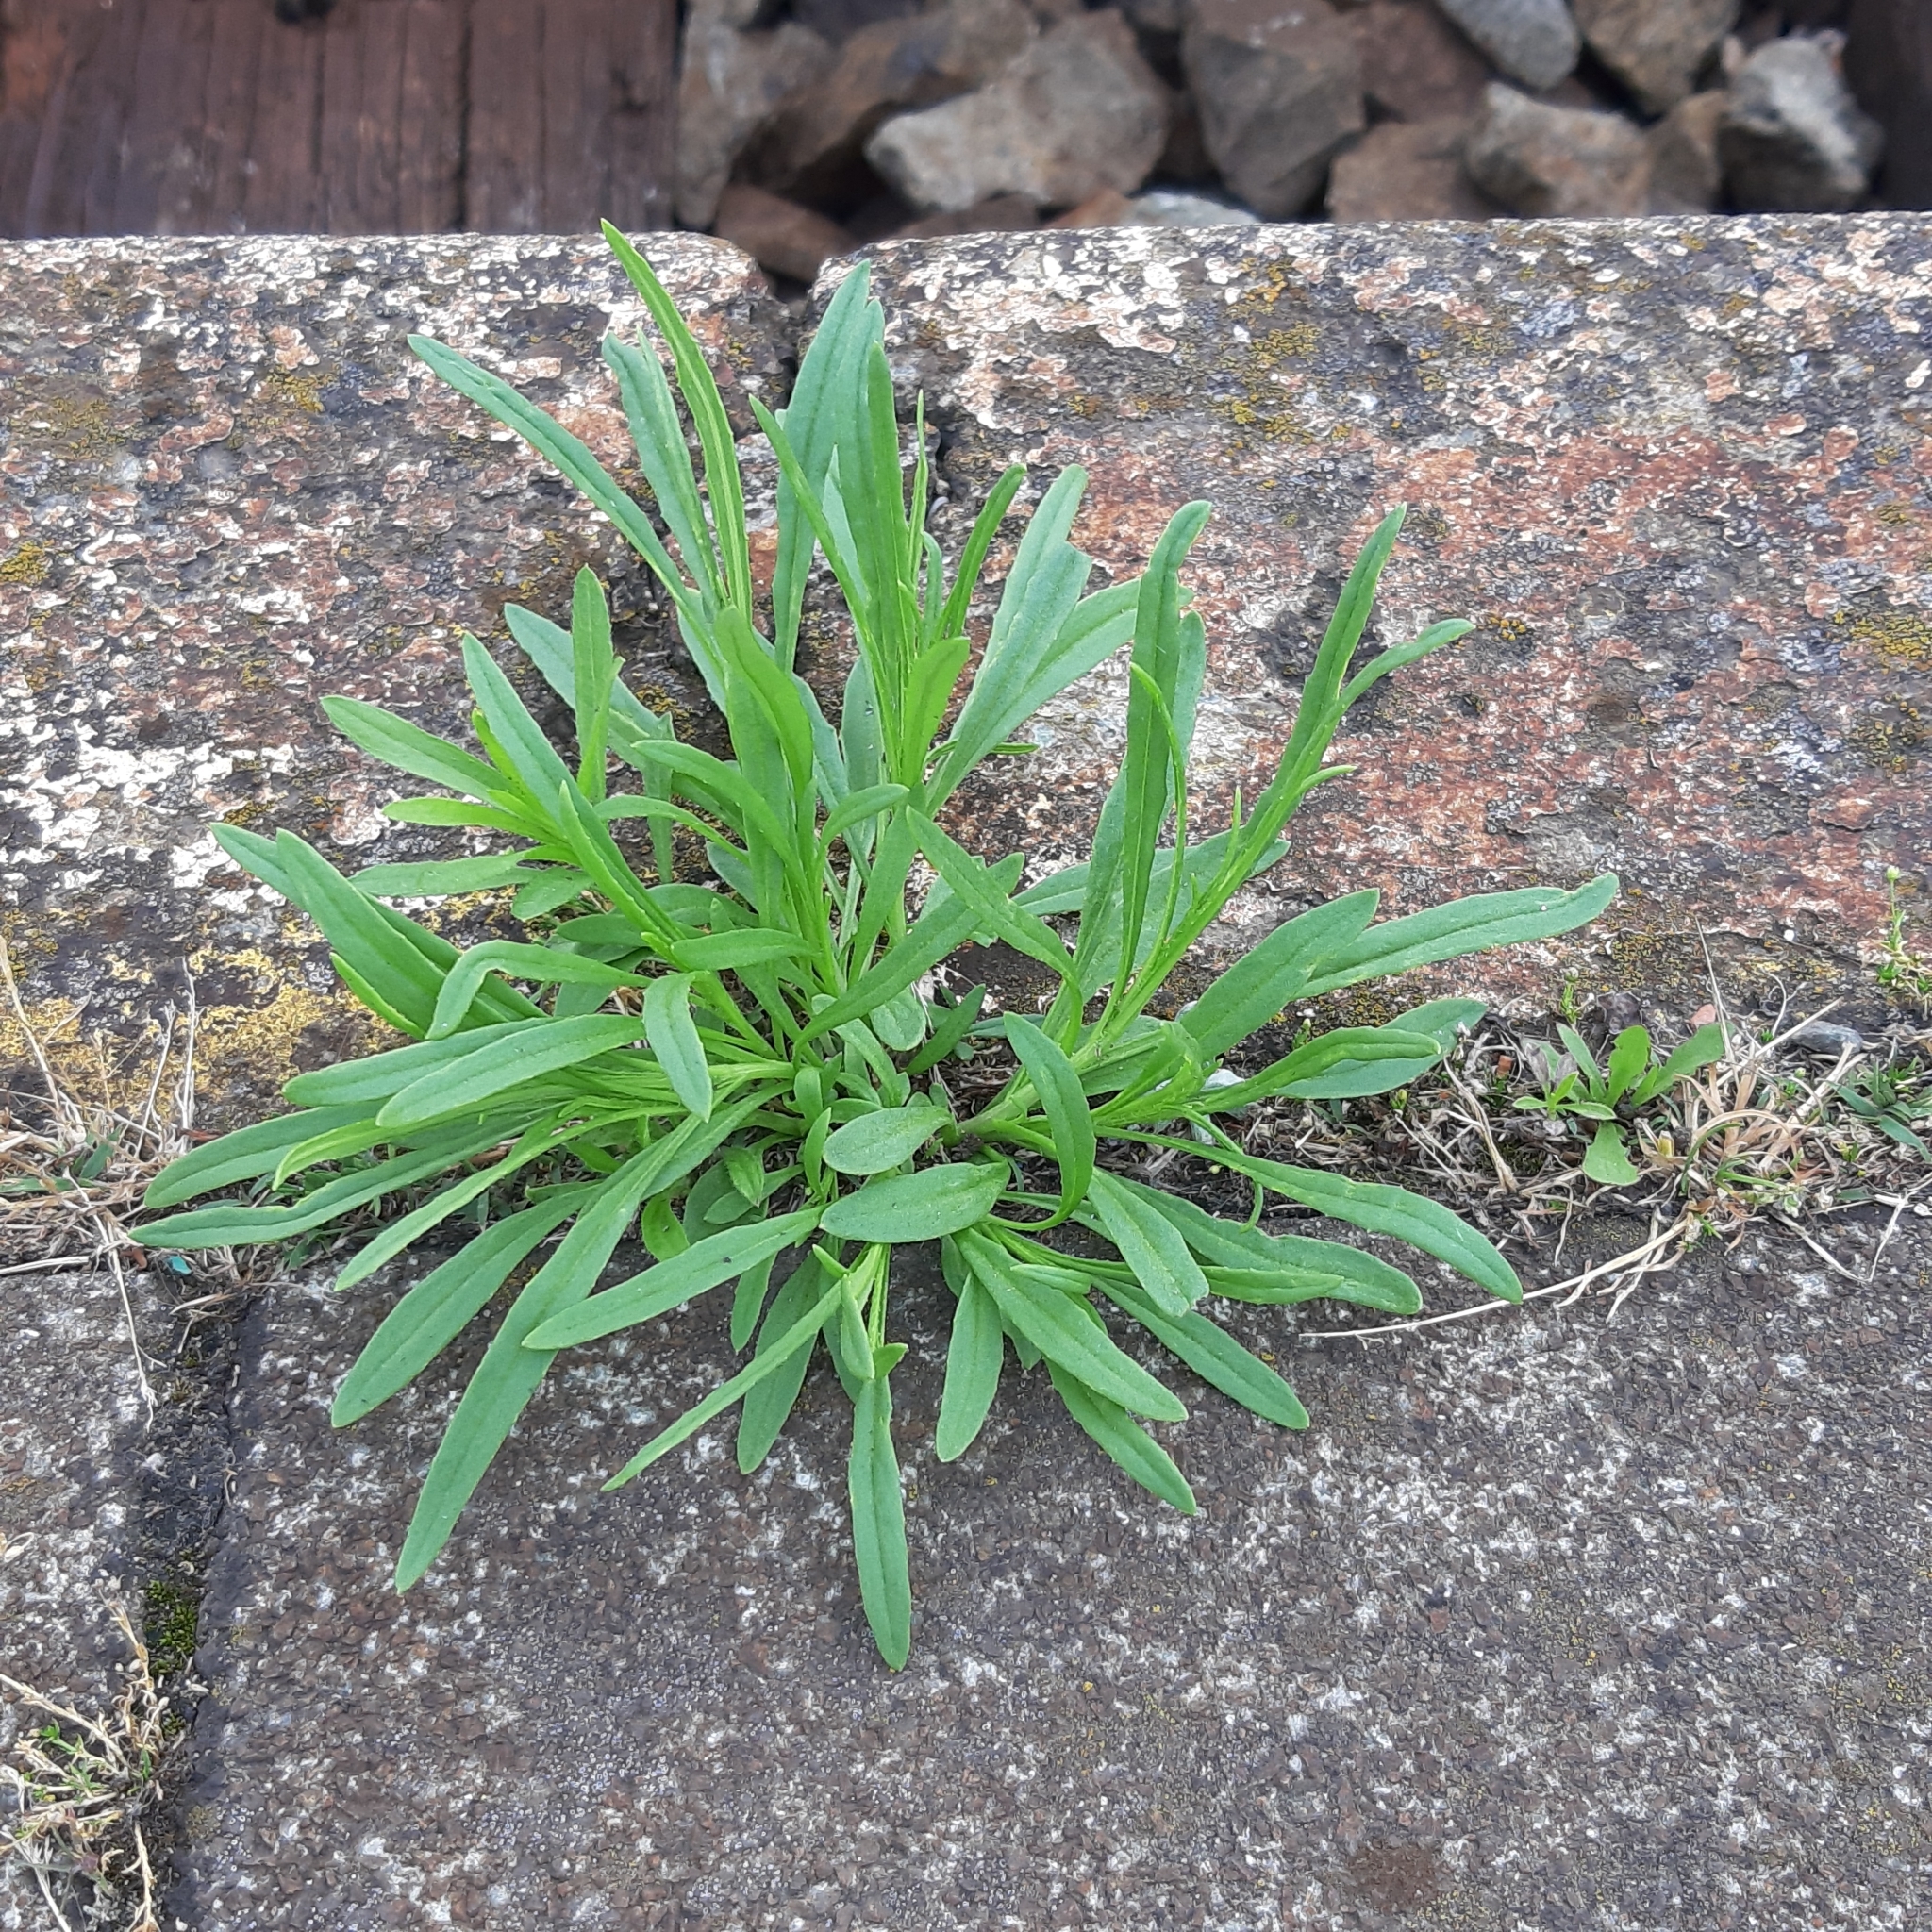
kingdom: Plantae
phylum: Tracheophyta
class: Magnoliopsida
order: Asterales
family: Asteraceae
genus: Senecio
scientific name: Senecio inaequidens
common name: Narrow-leaved ragwort
